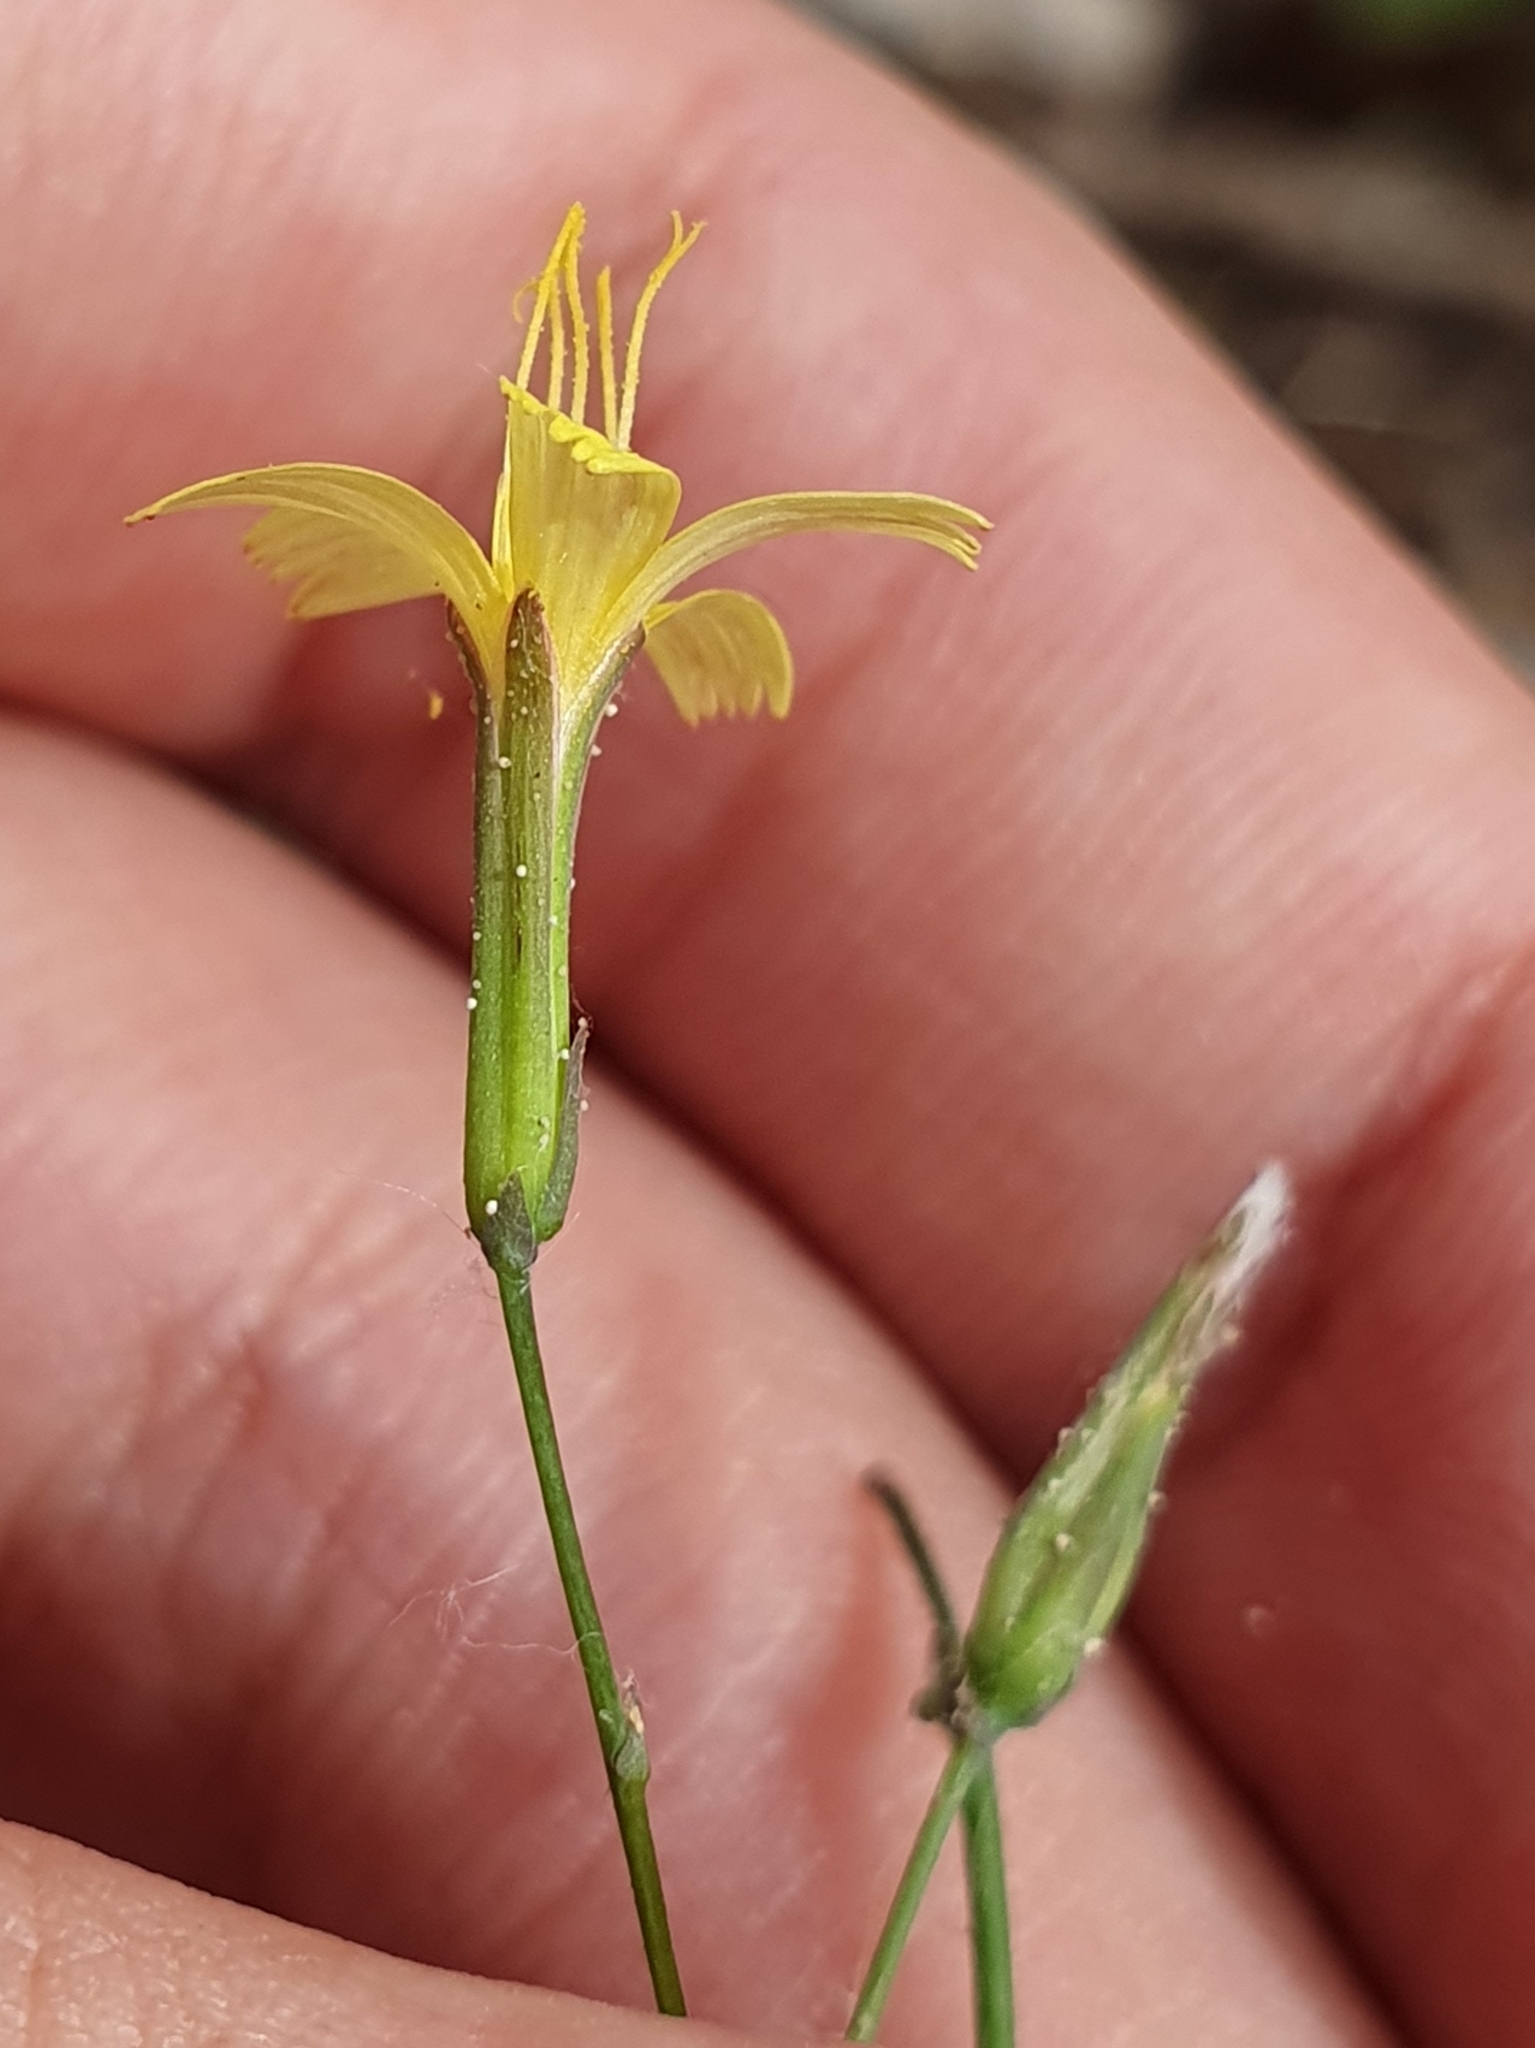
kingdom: Plantae
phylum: Tracheophyta
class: Magnoliopsida
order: Asterales
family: Asteraceae
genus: Mycelis
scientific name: Mycelis muralis
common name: Wall lettuce
